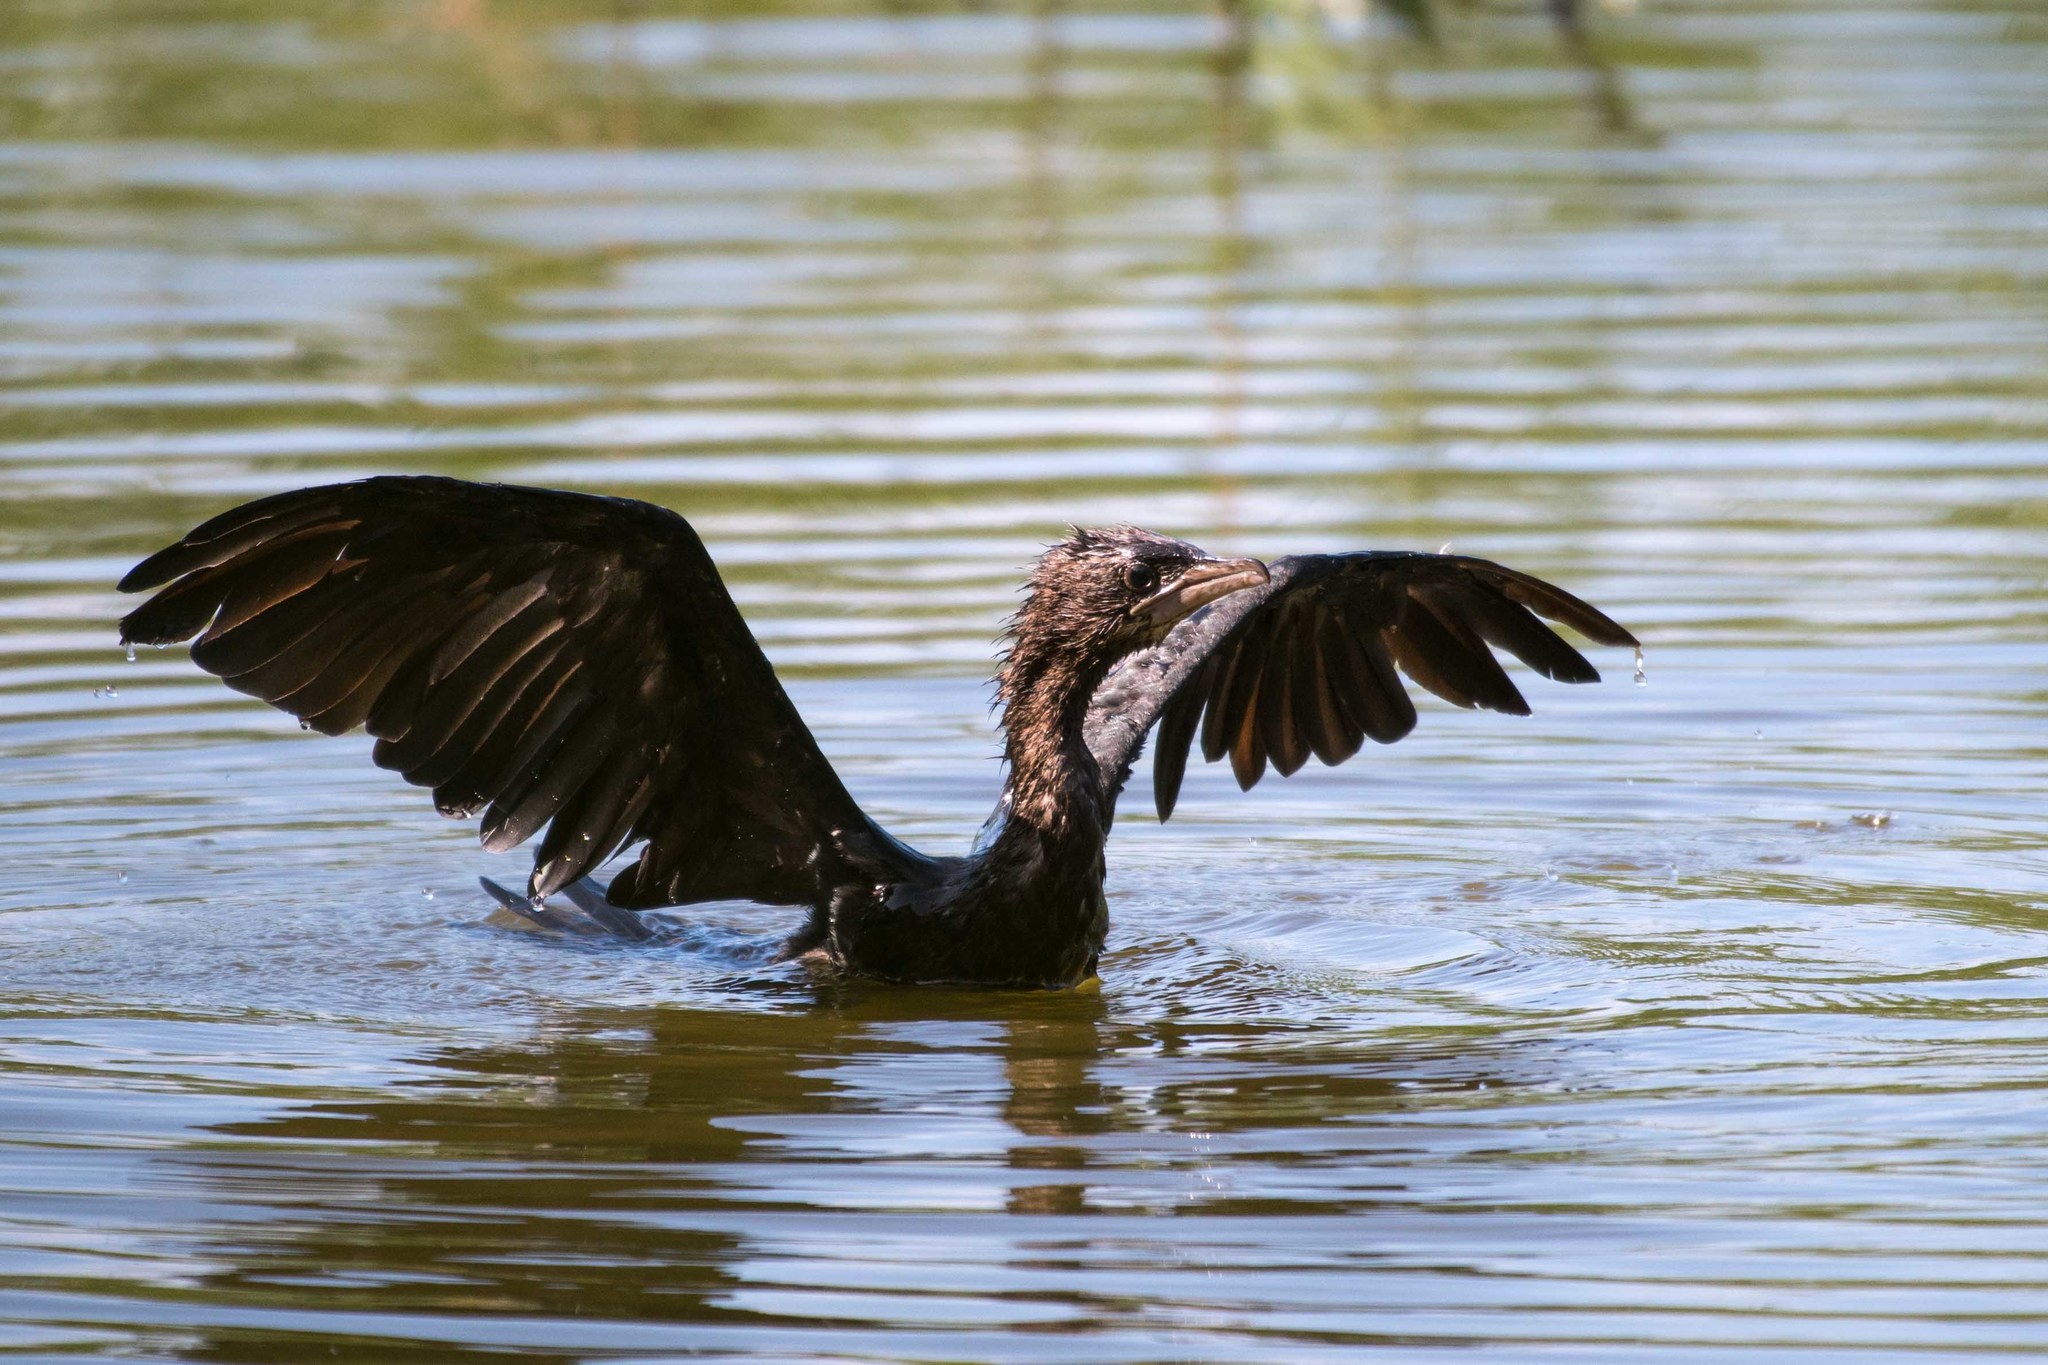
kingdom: Animalia
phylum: Chordata
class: Aves
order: Suliformes
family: Phalacrocoracidae
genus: Microcarbo
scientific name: Microcarbo pygmaeus
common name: Pygmy cormorant
